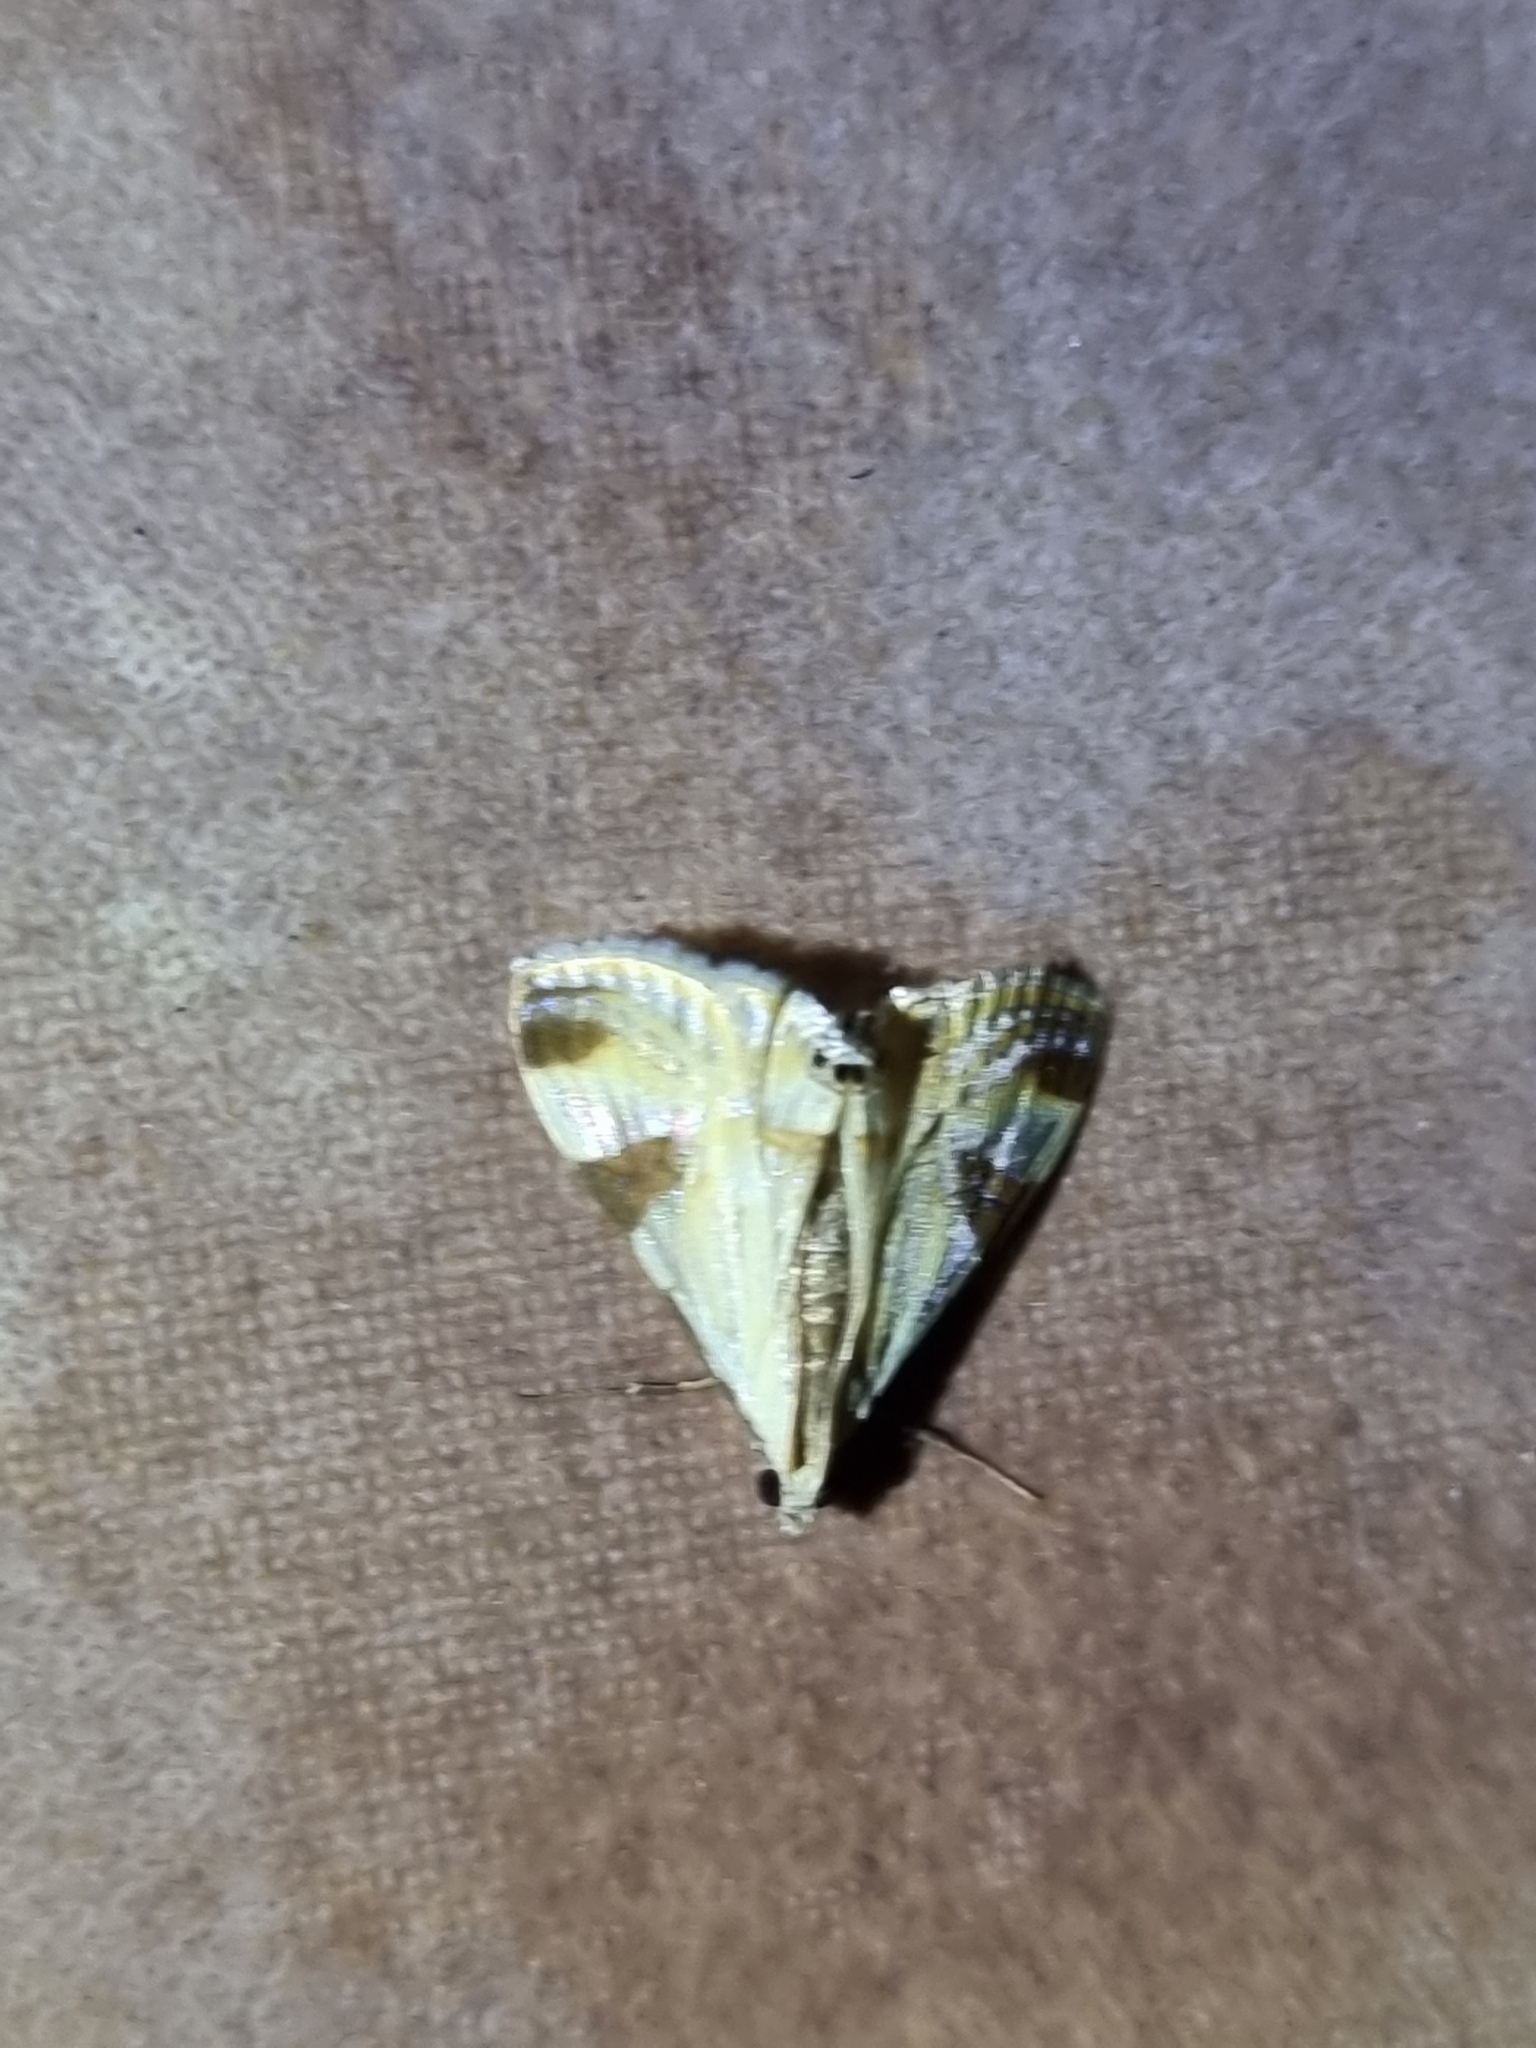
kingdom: Animalia
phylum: Arthropoda
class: Insecta
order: Lepidoptera
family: Crambidae
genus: Talanga
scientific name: Talanga tolumnialis
